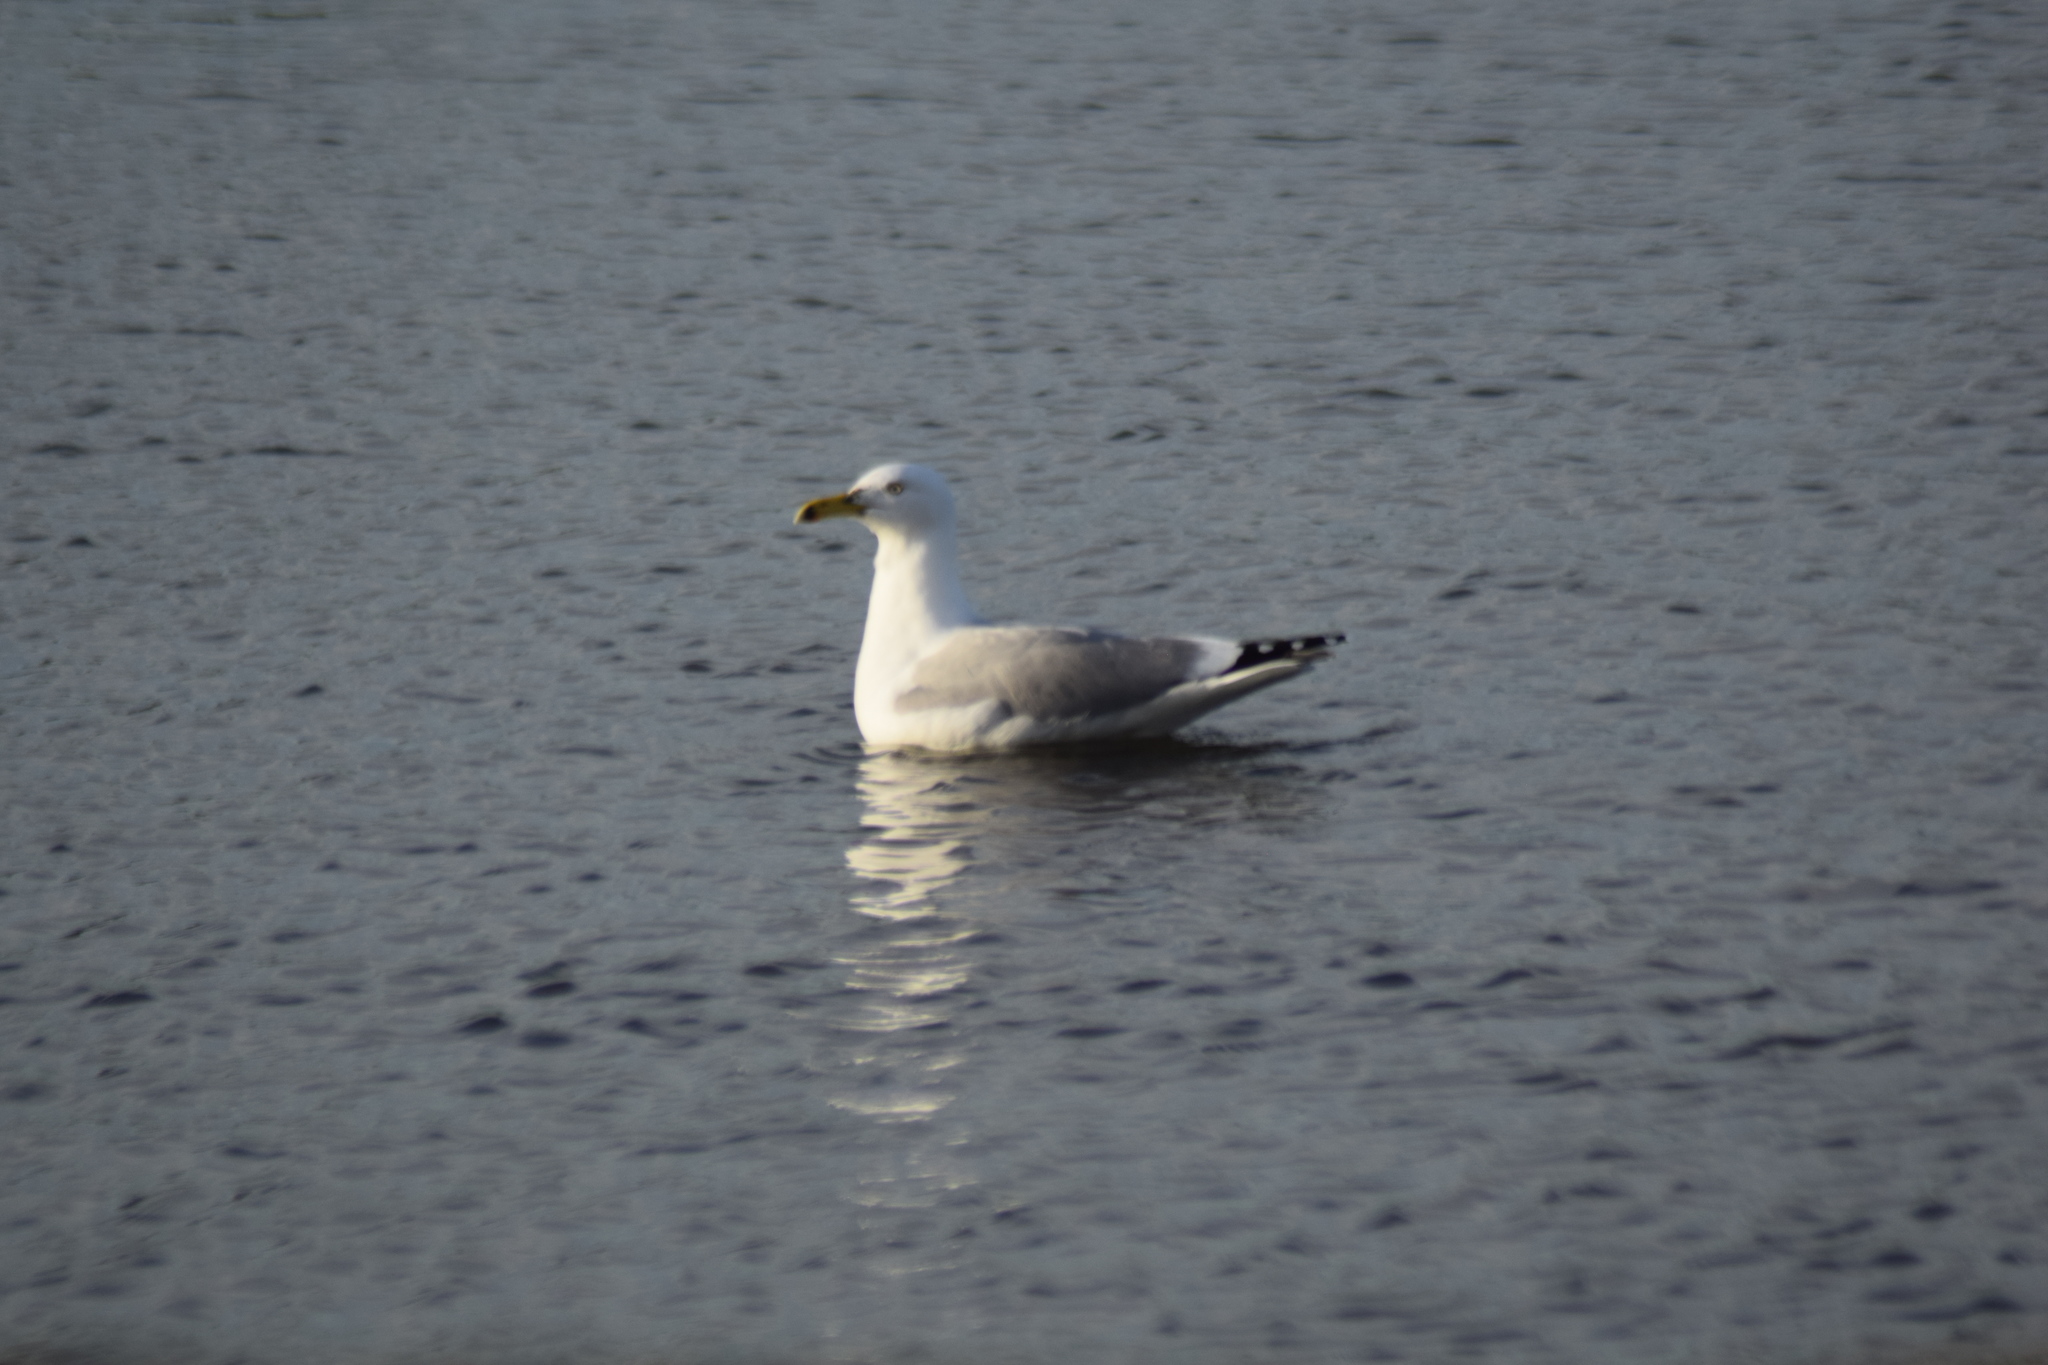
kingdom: Animalia
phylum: Chordata
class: Aves
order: Charadriiformes
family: Laridae
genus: Larus
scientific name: Larus argentatus
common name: Herring gull
